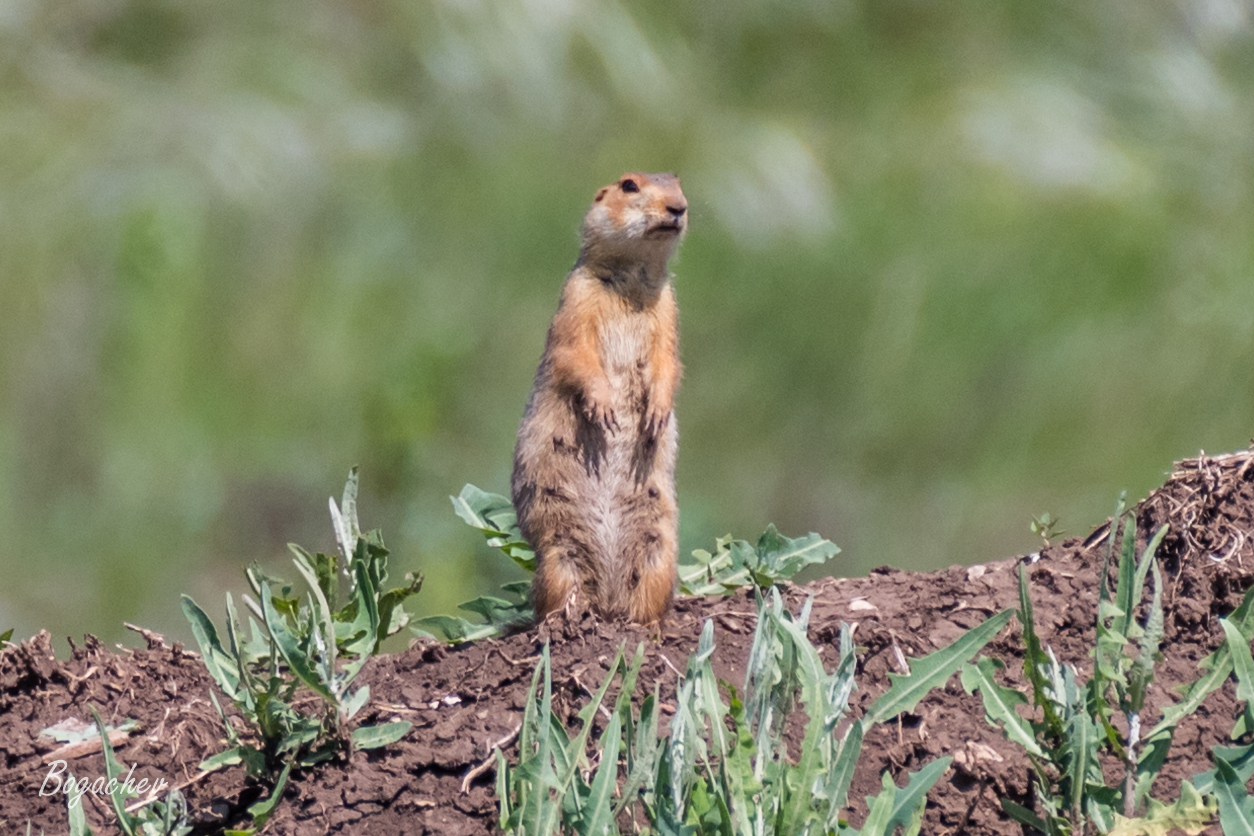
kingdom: Animalia
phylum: Chordata
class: Mammalia
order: Rodentia
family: Sciuridae
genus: Spermophilus
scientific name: Spermophilus major
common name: Russet ground squirrel
